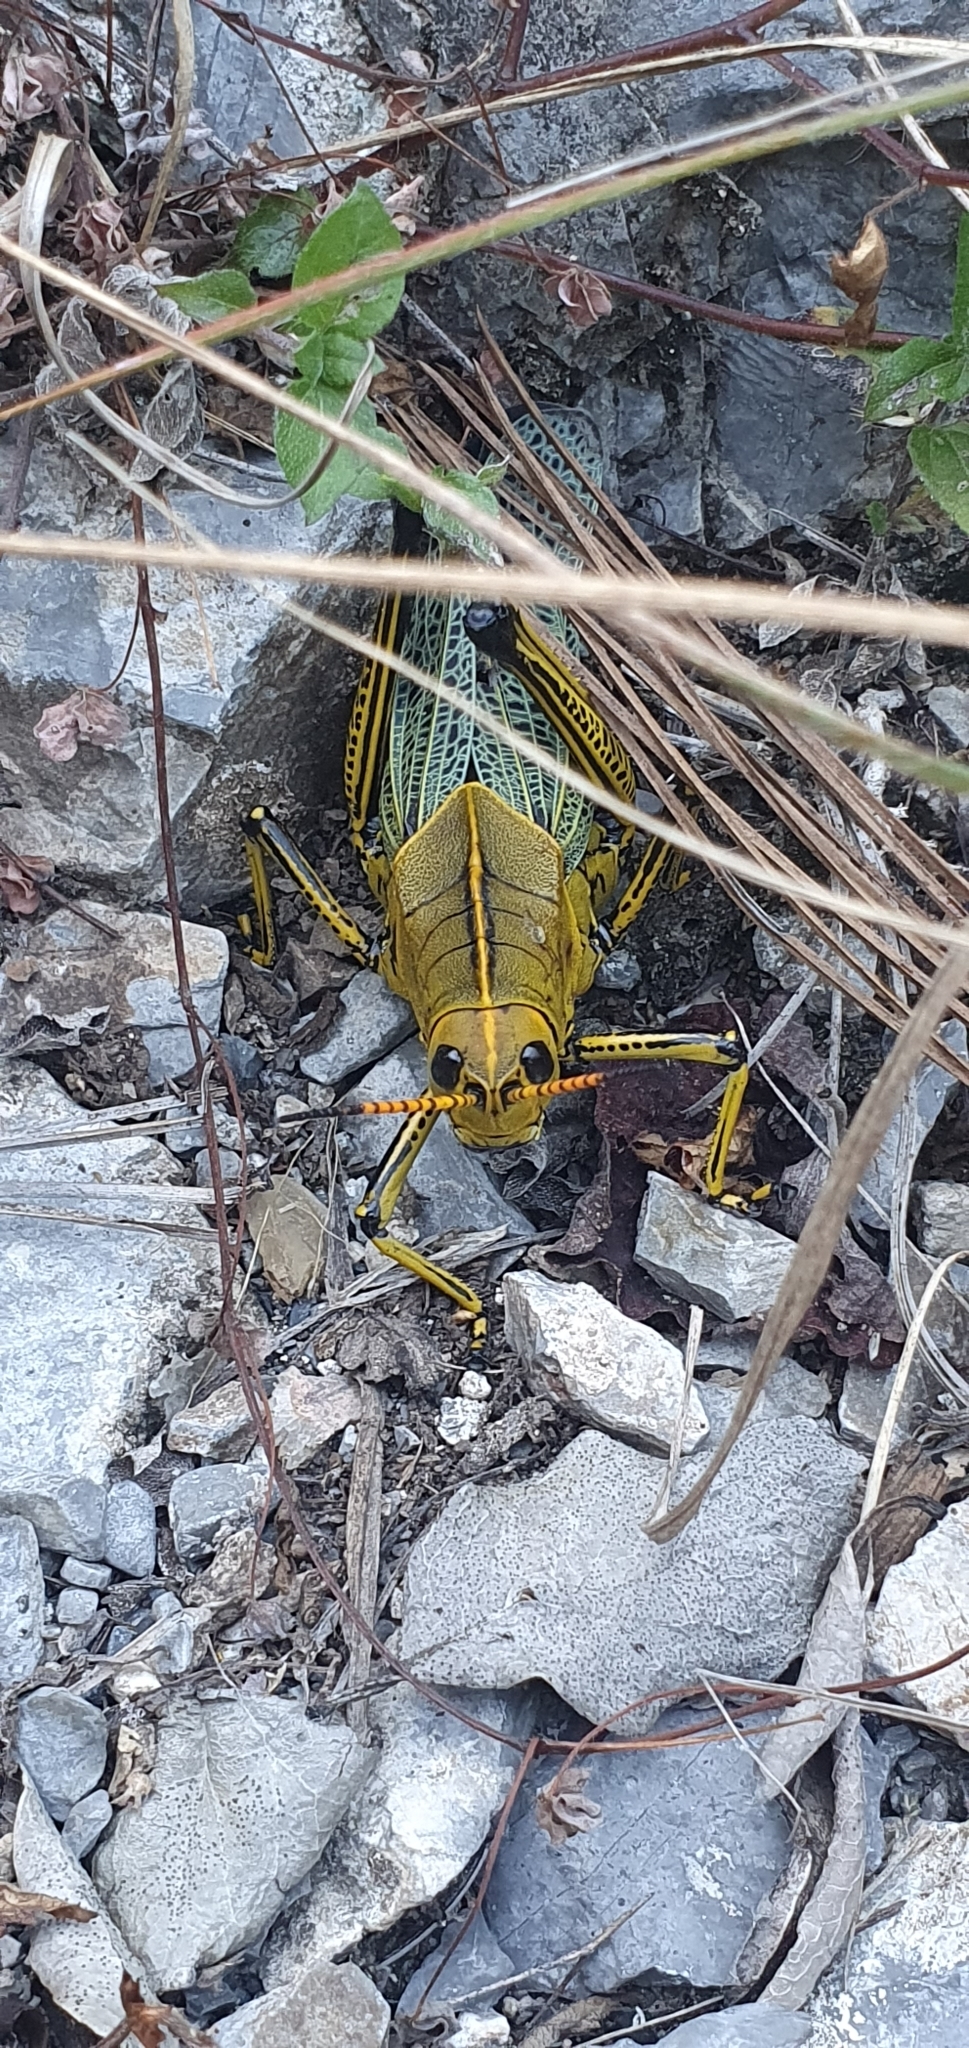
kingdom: Animalia
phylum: Arthropoda
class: Insecta
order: Orthoptera
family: Romaleidae
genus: Romalea
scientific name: Romalea
